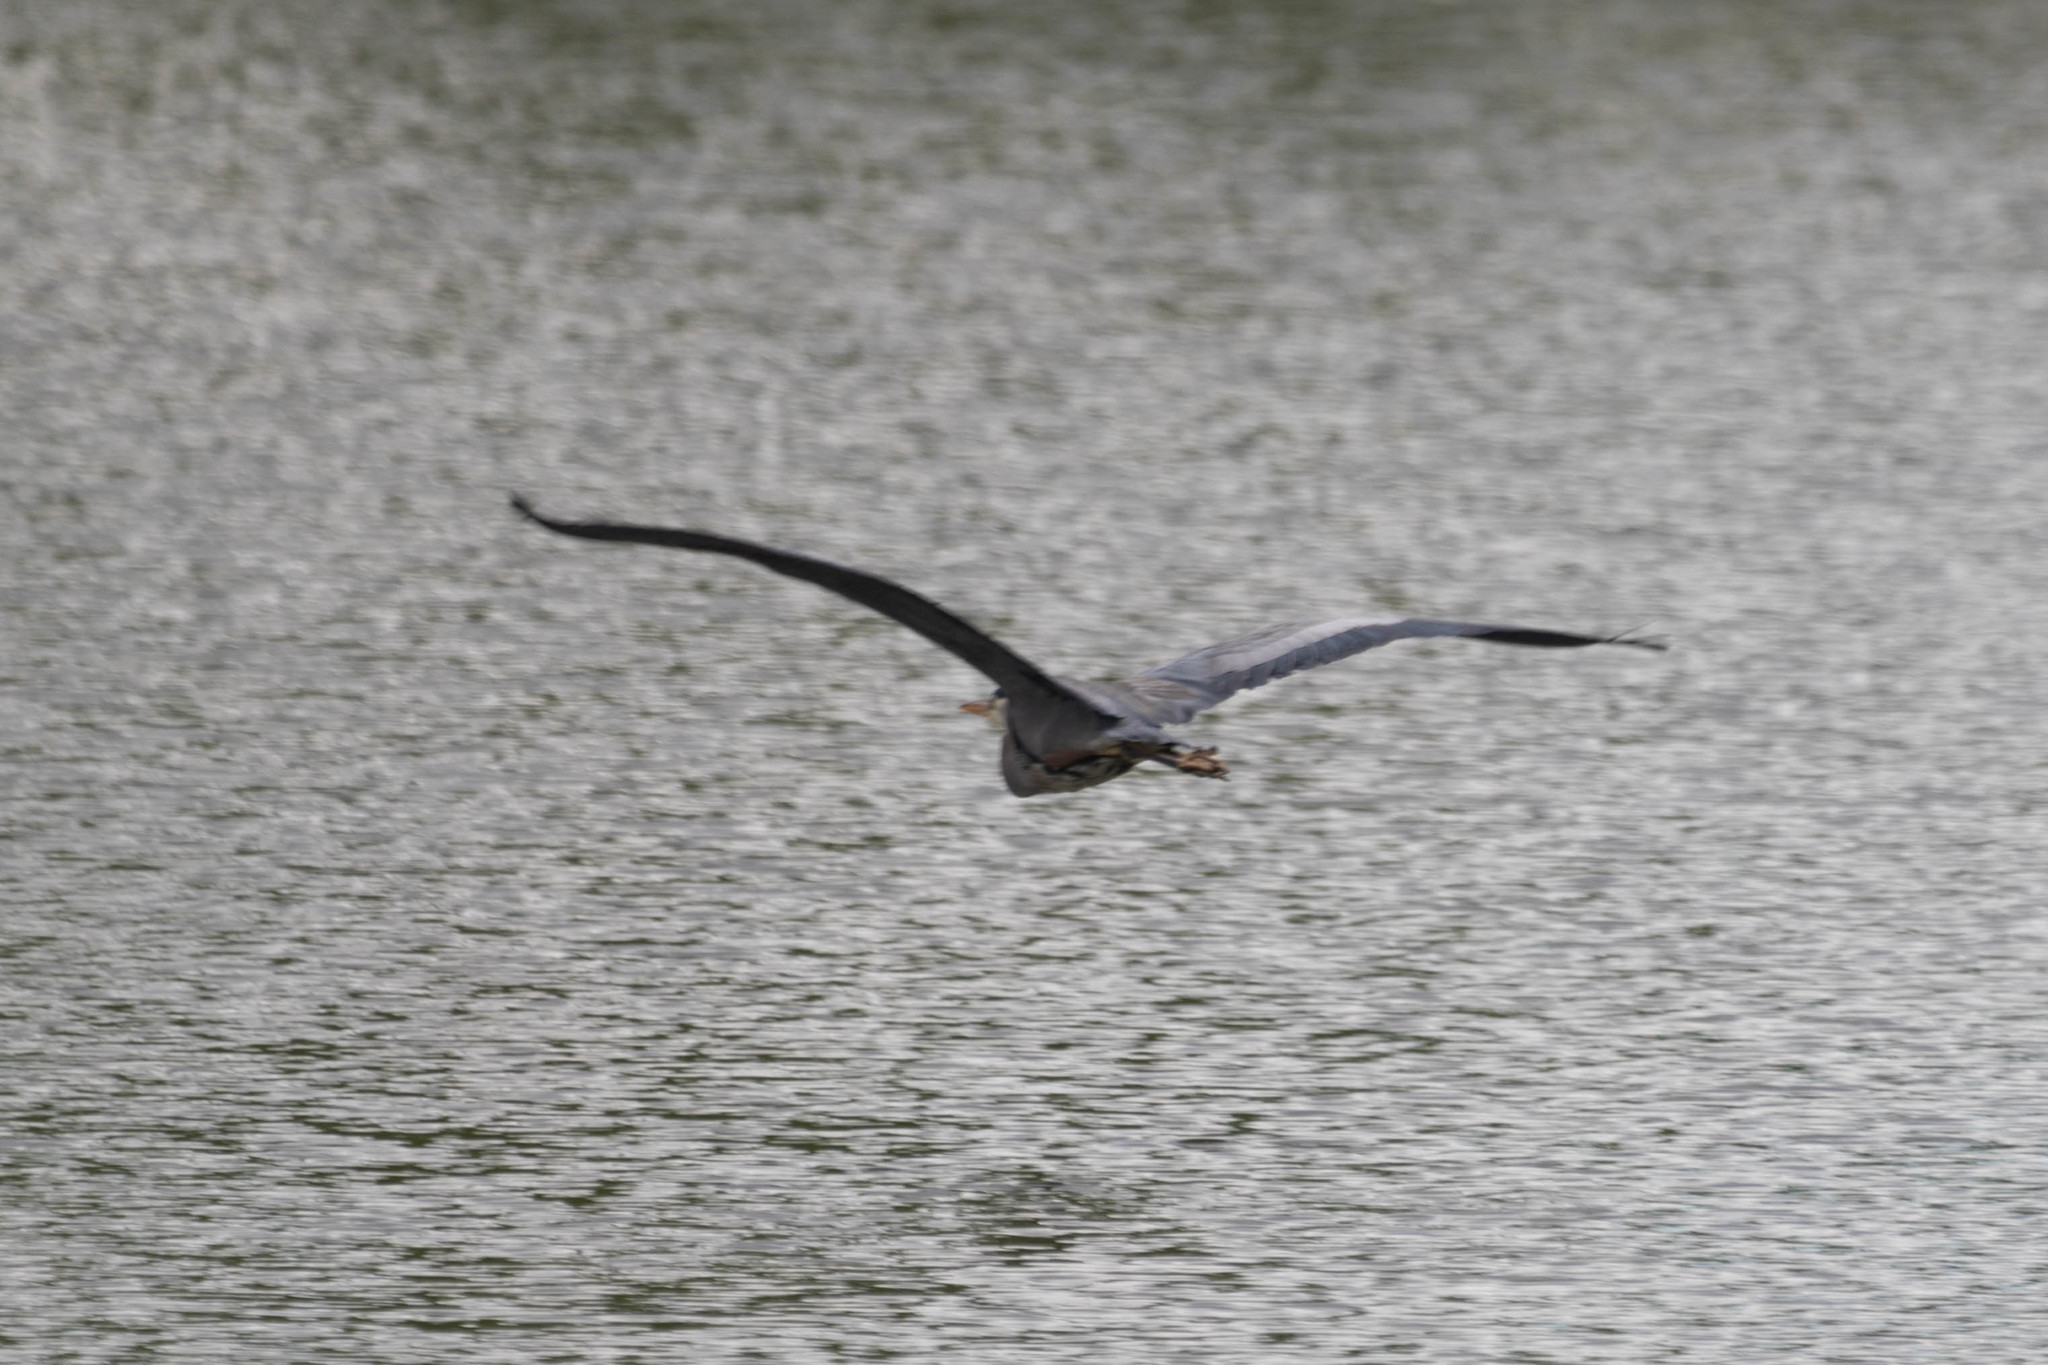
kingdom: Animalia
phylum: Chordata
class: Aves
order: Pelecaniformes
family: Ardeidae
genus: Ardea
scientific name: Ardea herodias
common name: Great blue heron
